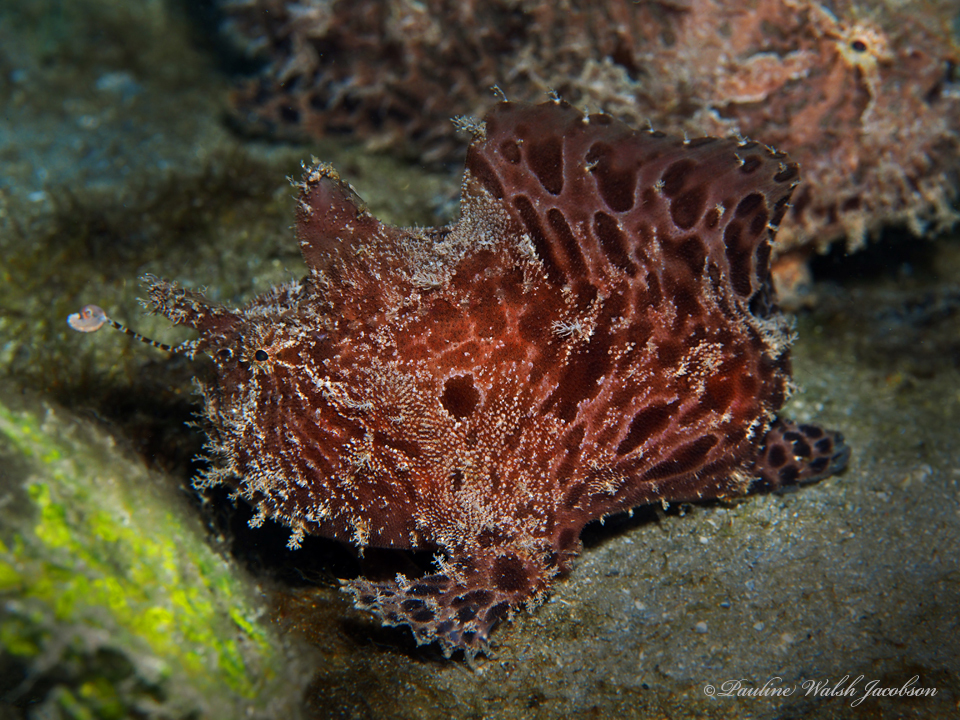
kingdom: Animalia
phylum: Chordata
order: Lophiiformes
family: Antennariidae
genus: Antennarius
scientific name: Antennarius striatus
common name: Striated frogfish
